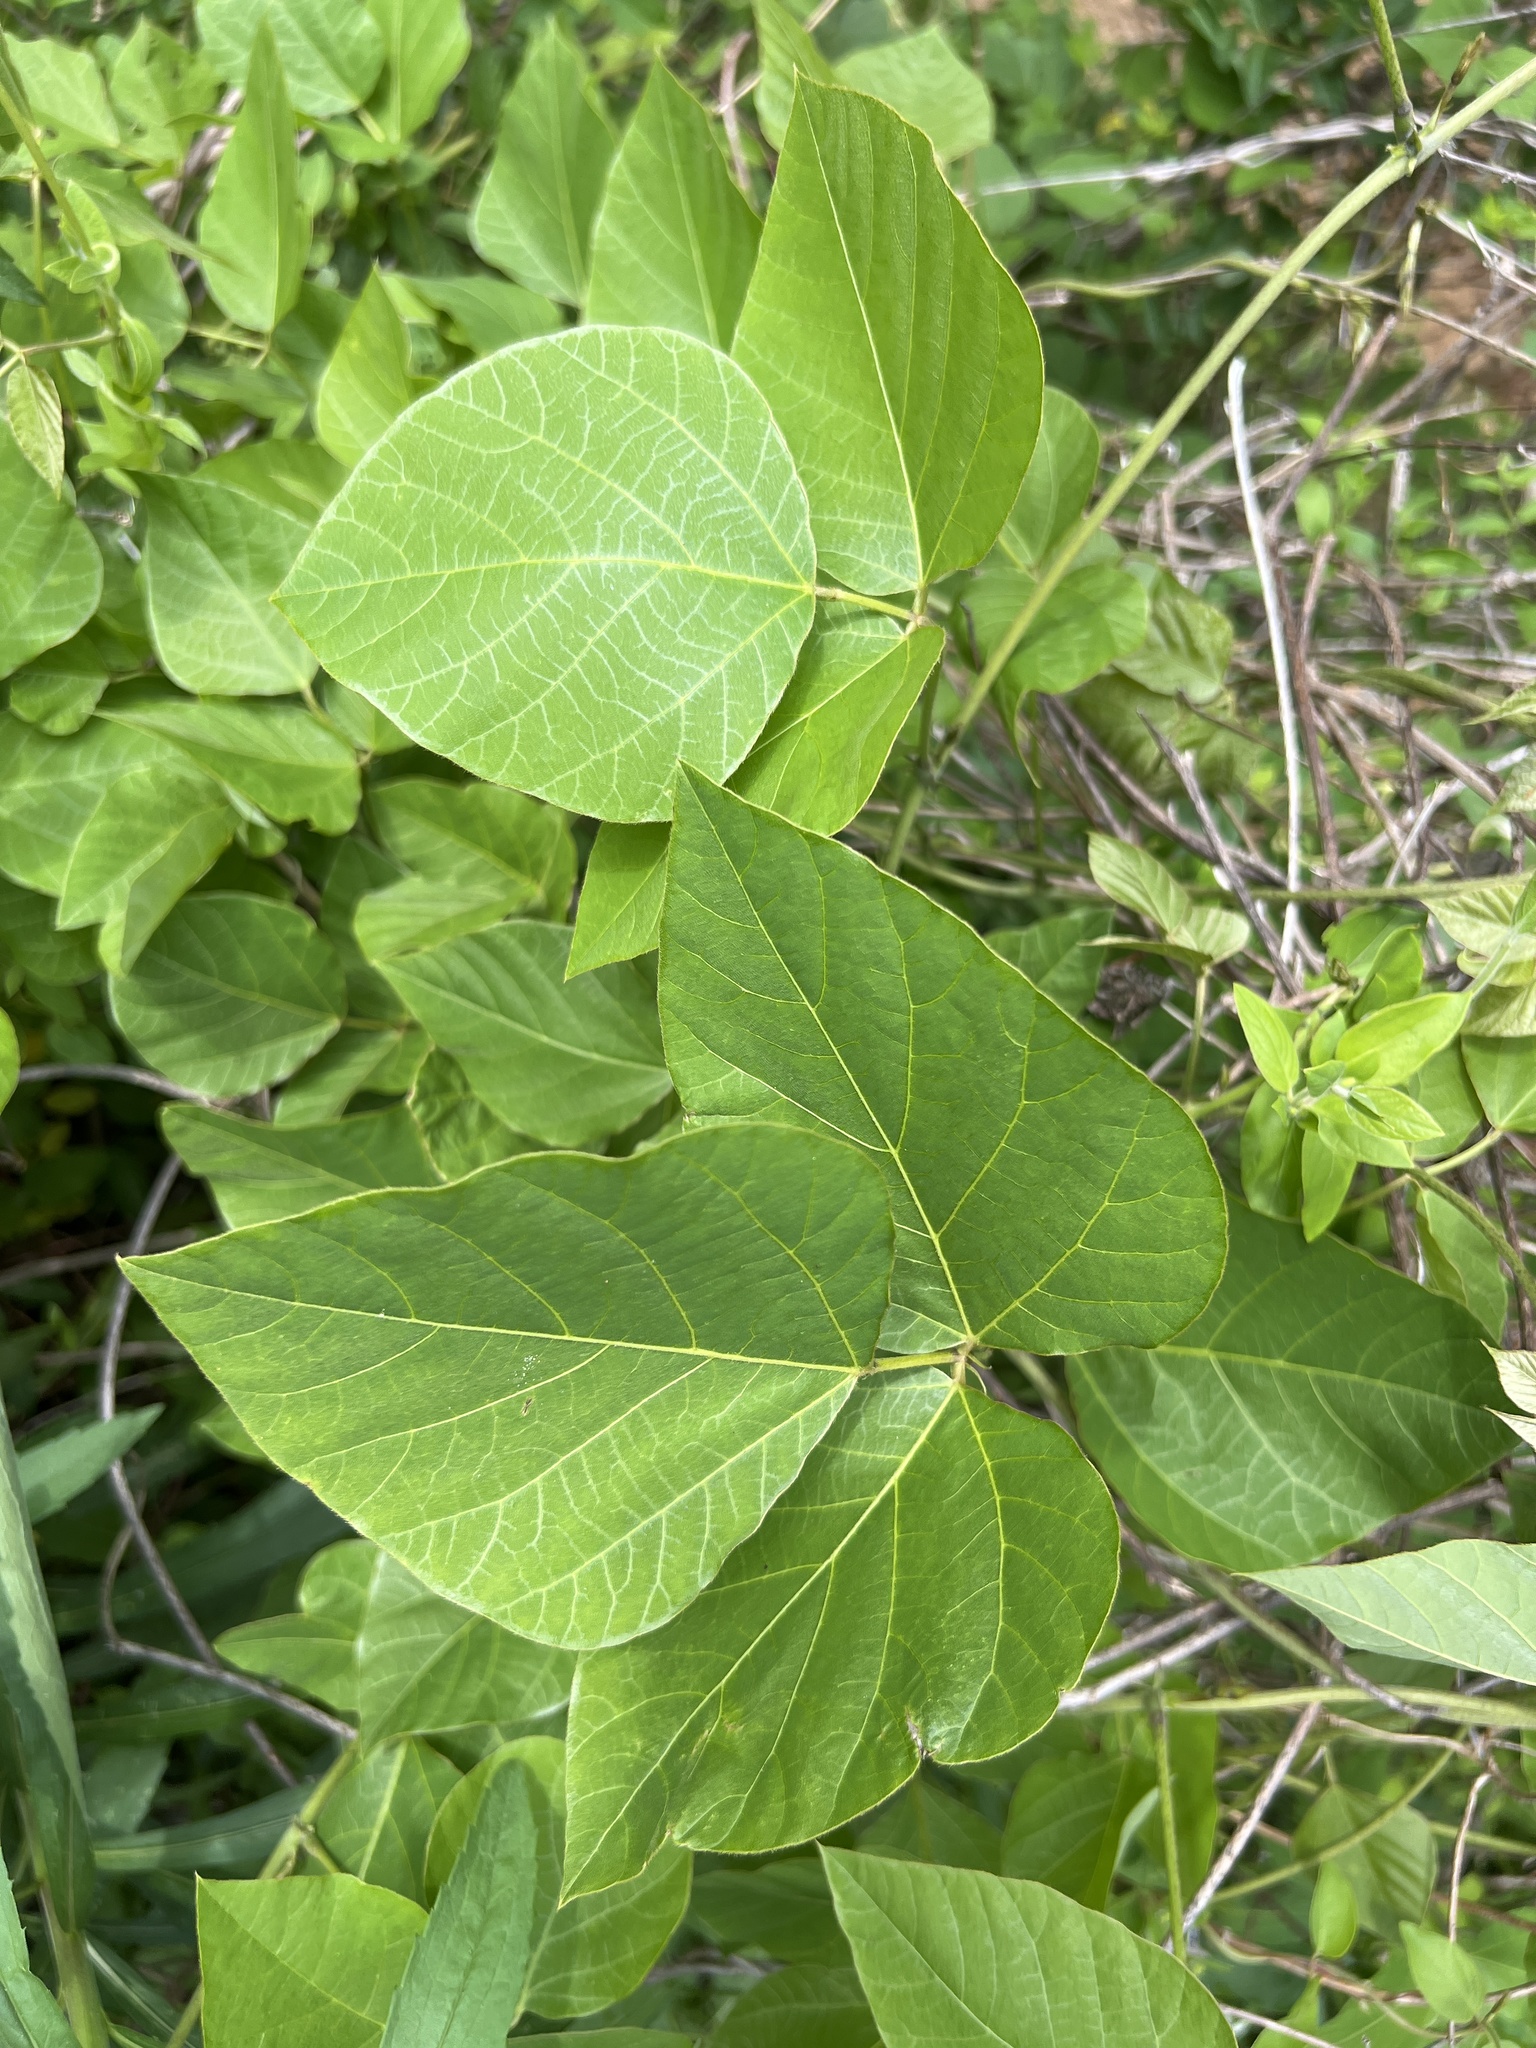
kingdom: Plantae
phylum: Tracheophyta
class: Magnoliopsida
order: Fabales
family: Fabaceae
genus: Pueraria
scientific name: Pueraria montana
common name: Kudzu
